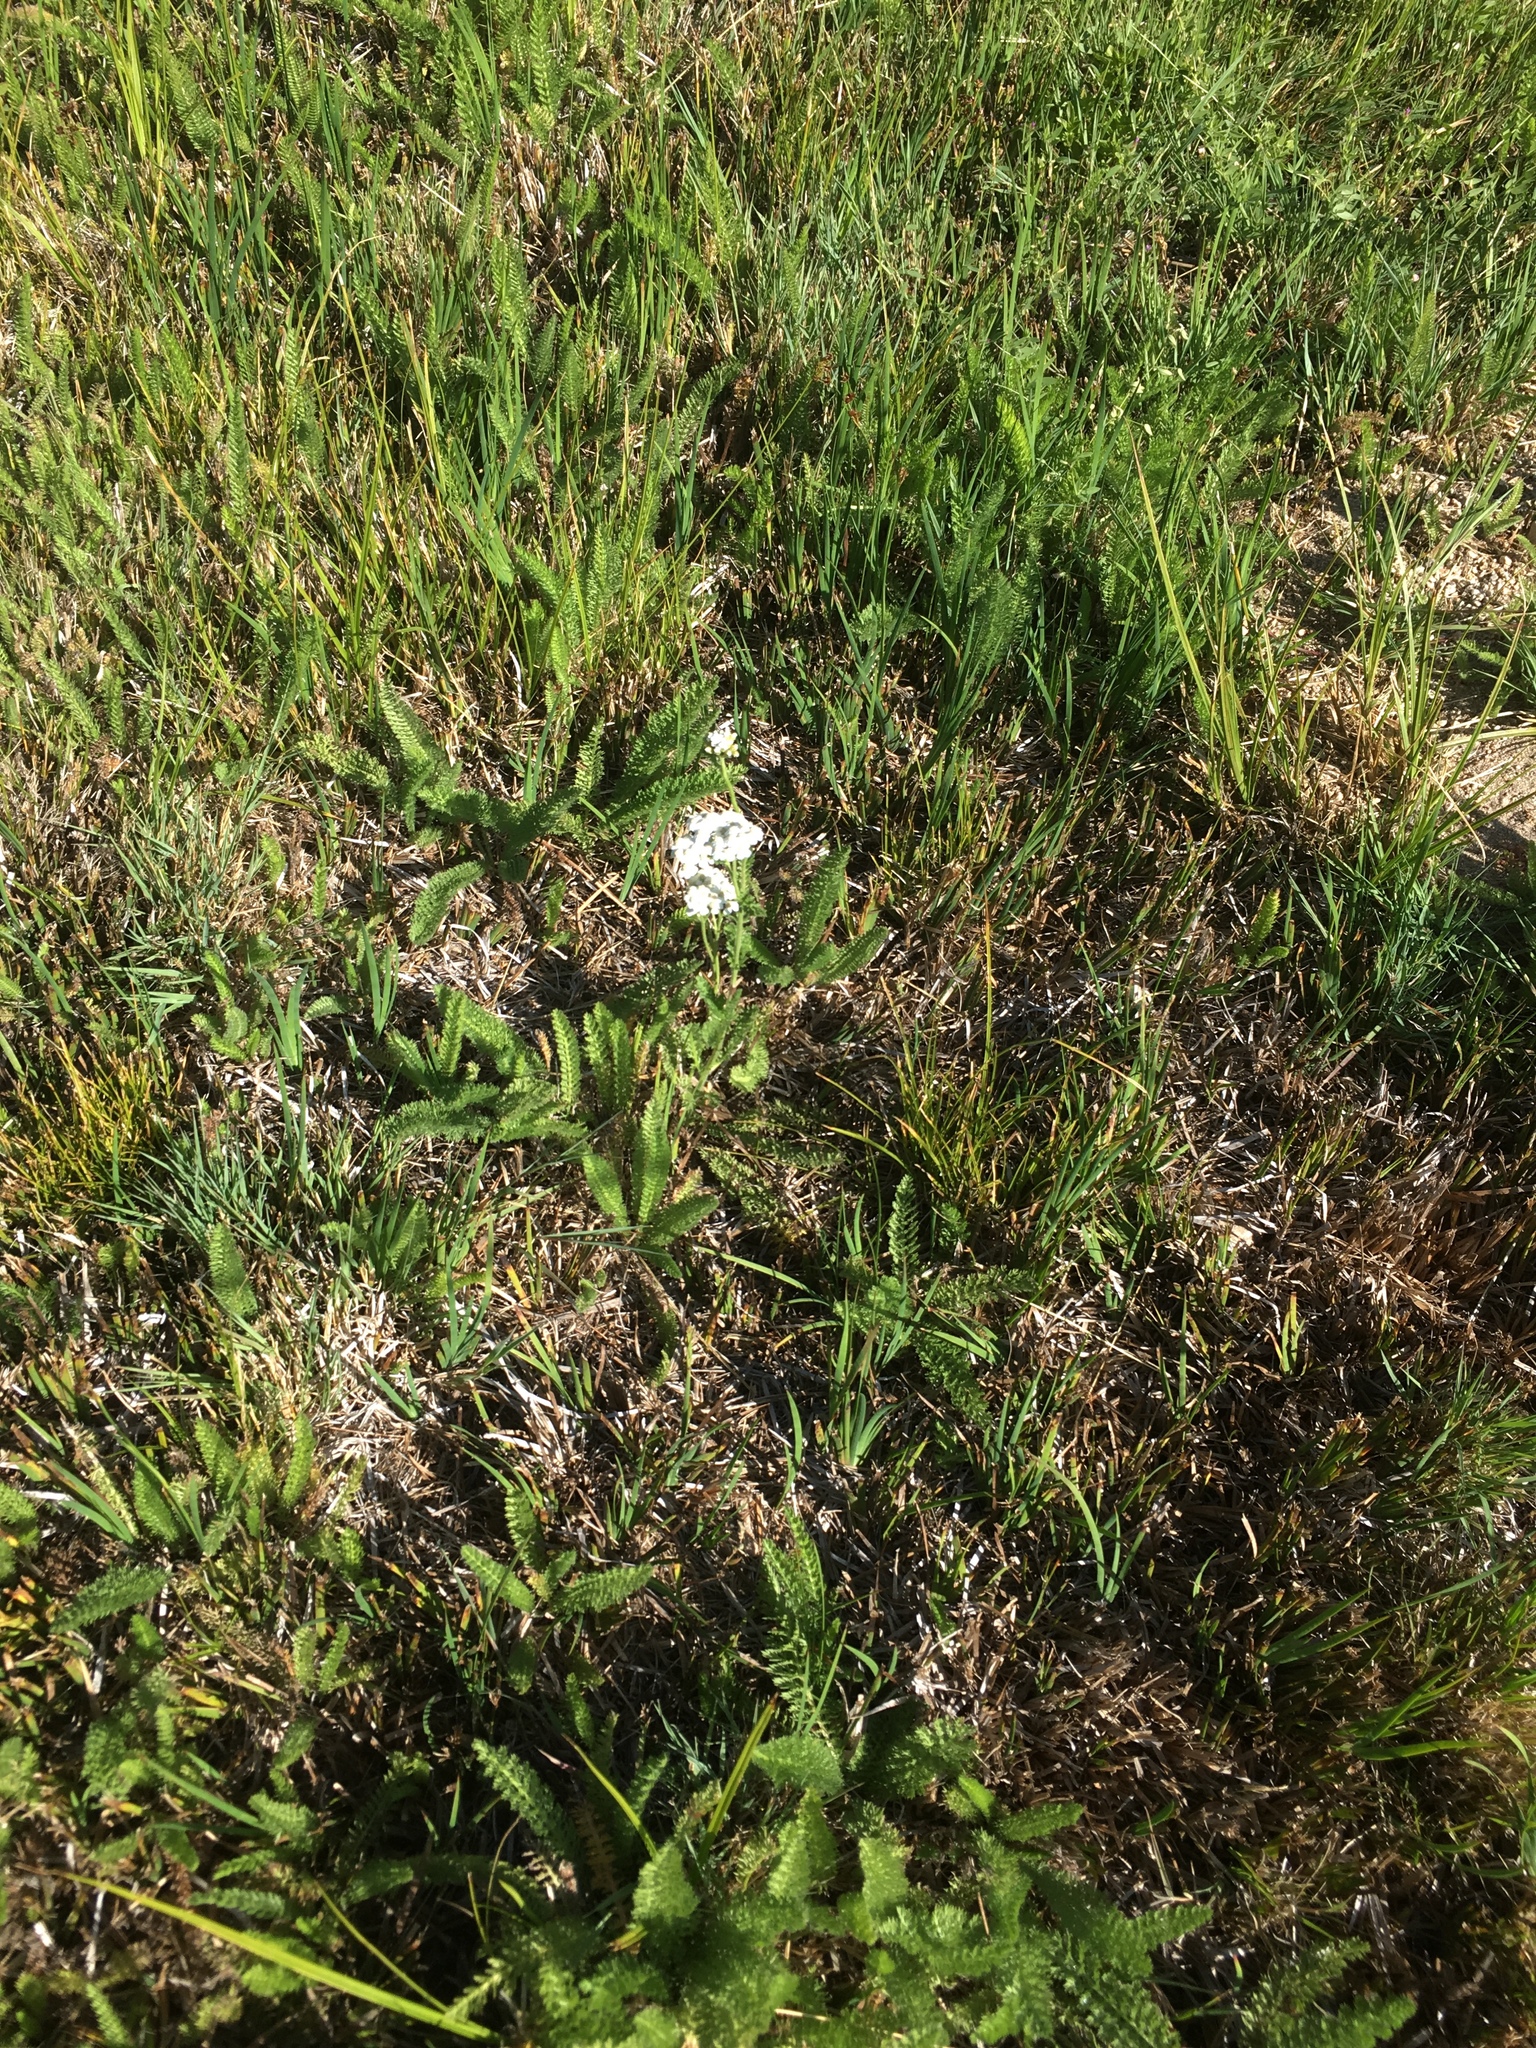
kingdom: Plantae
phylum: Tracheophyta
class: Magnoliopsida
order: Asterales
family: Asteraceae
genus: Achillea
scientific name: Achillea millefolium
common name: Yarrow
